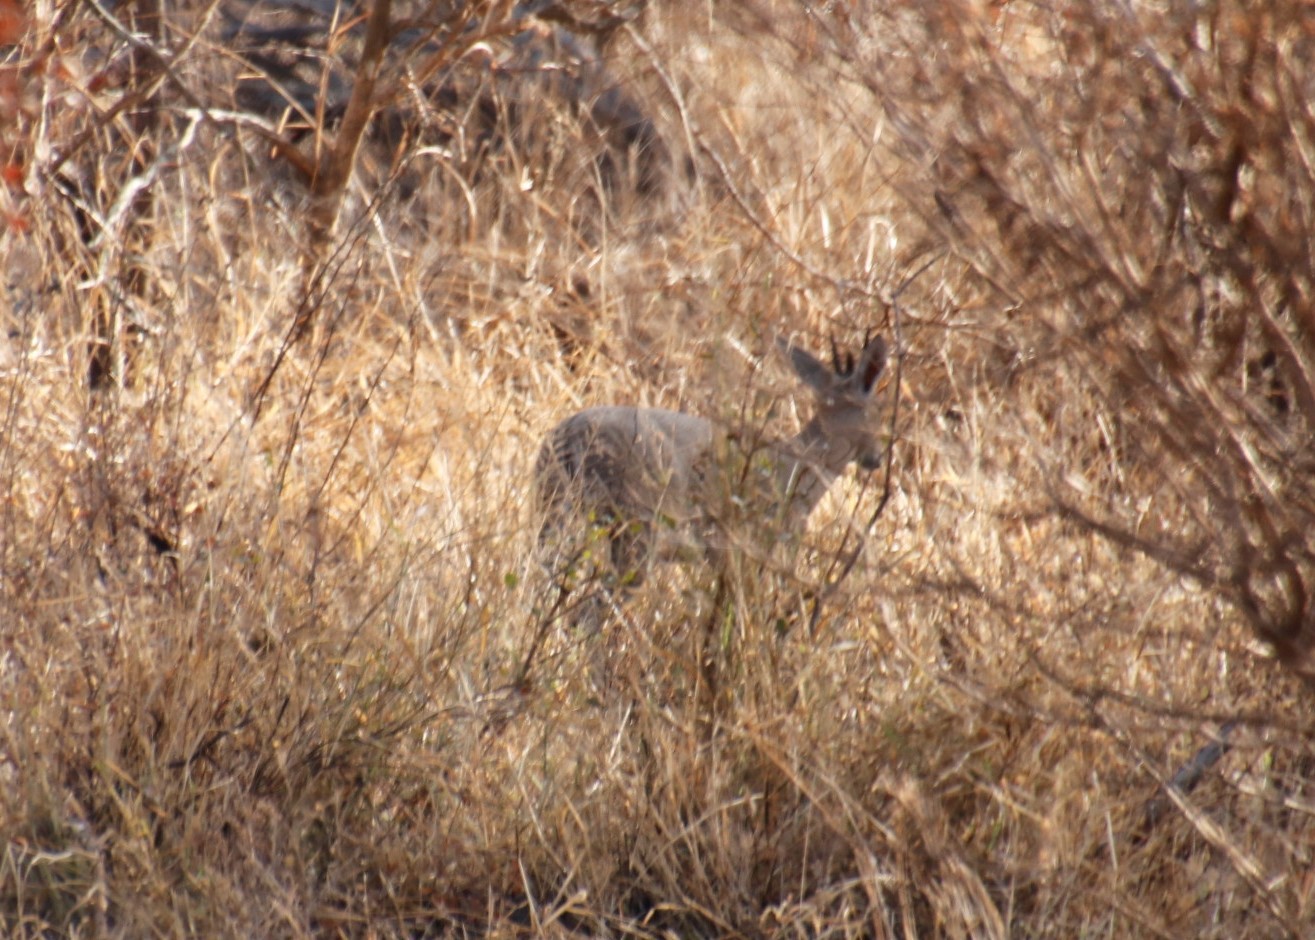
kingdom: Animalia
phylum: Chordata
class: Mammalia
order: Artiodactyla
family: Bovidae
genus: Sylvicapra
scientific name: Sylvicapra grimmia
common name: Bush duiker
